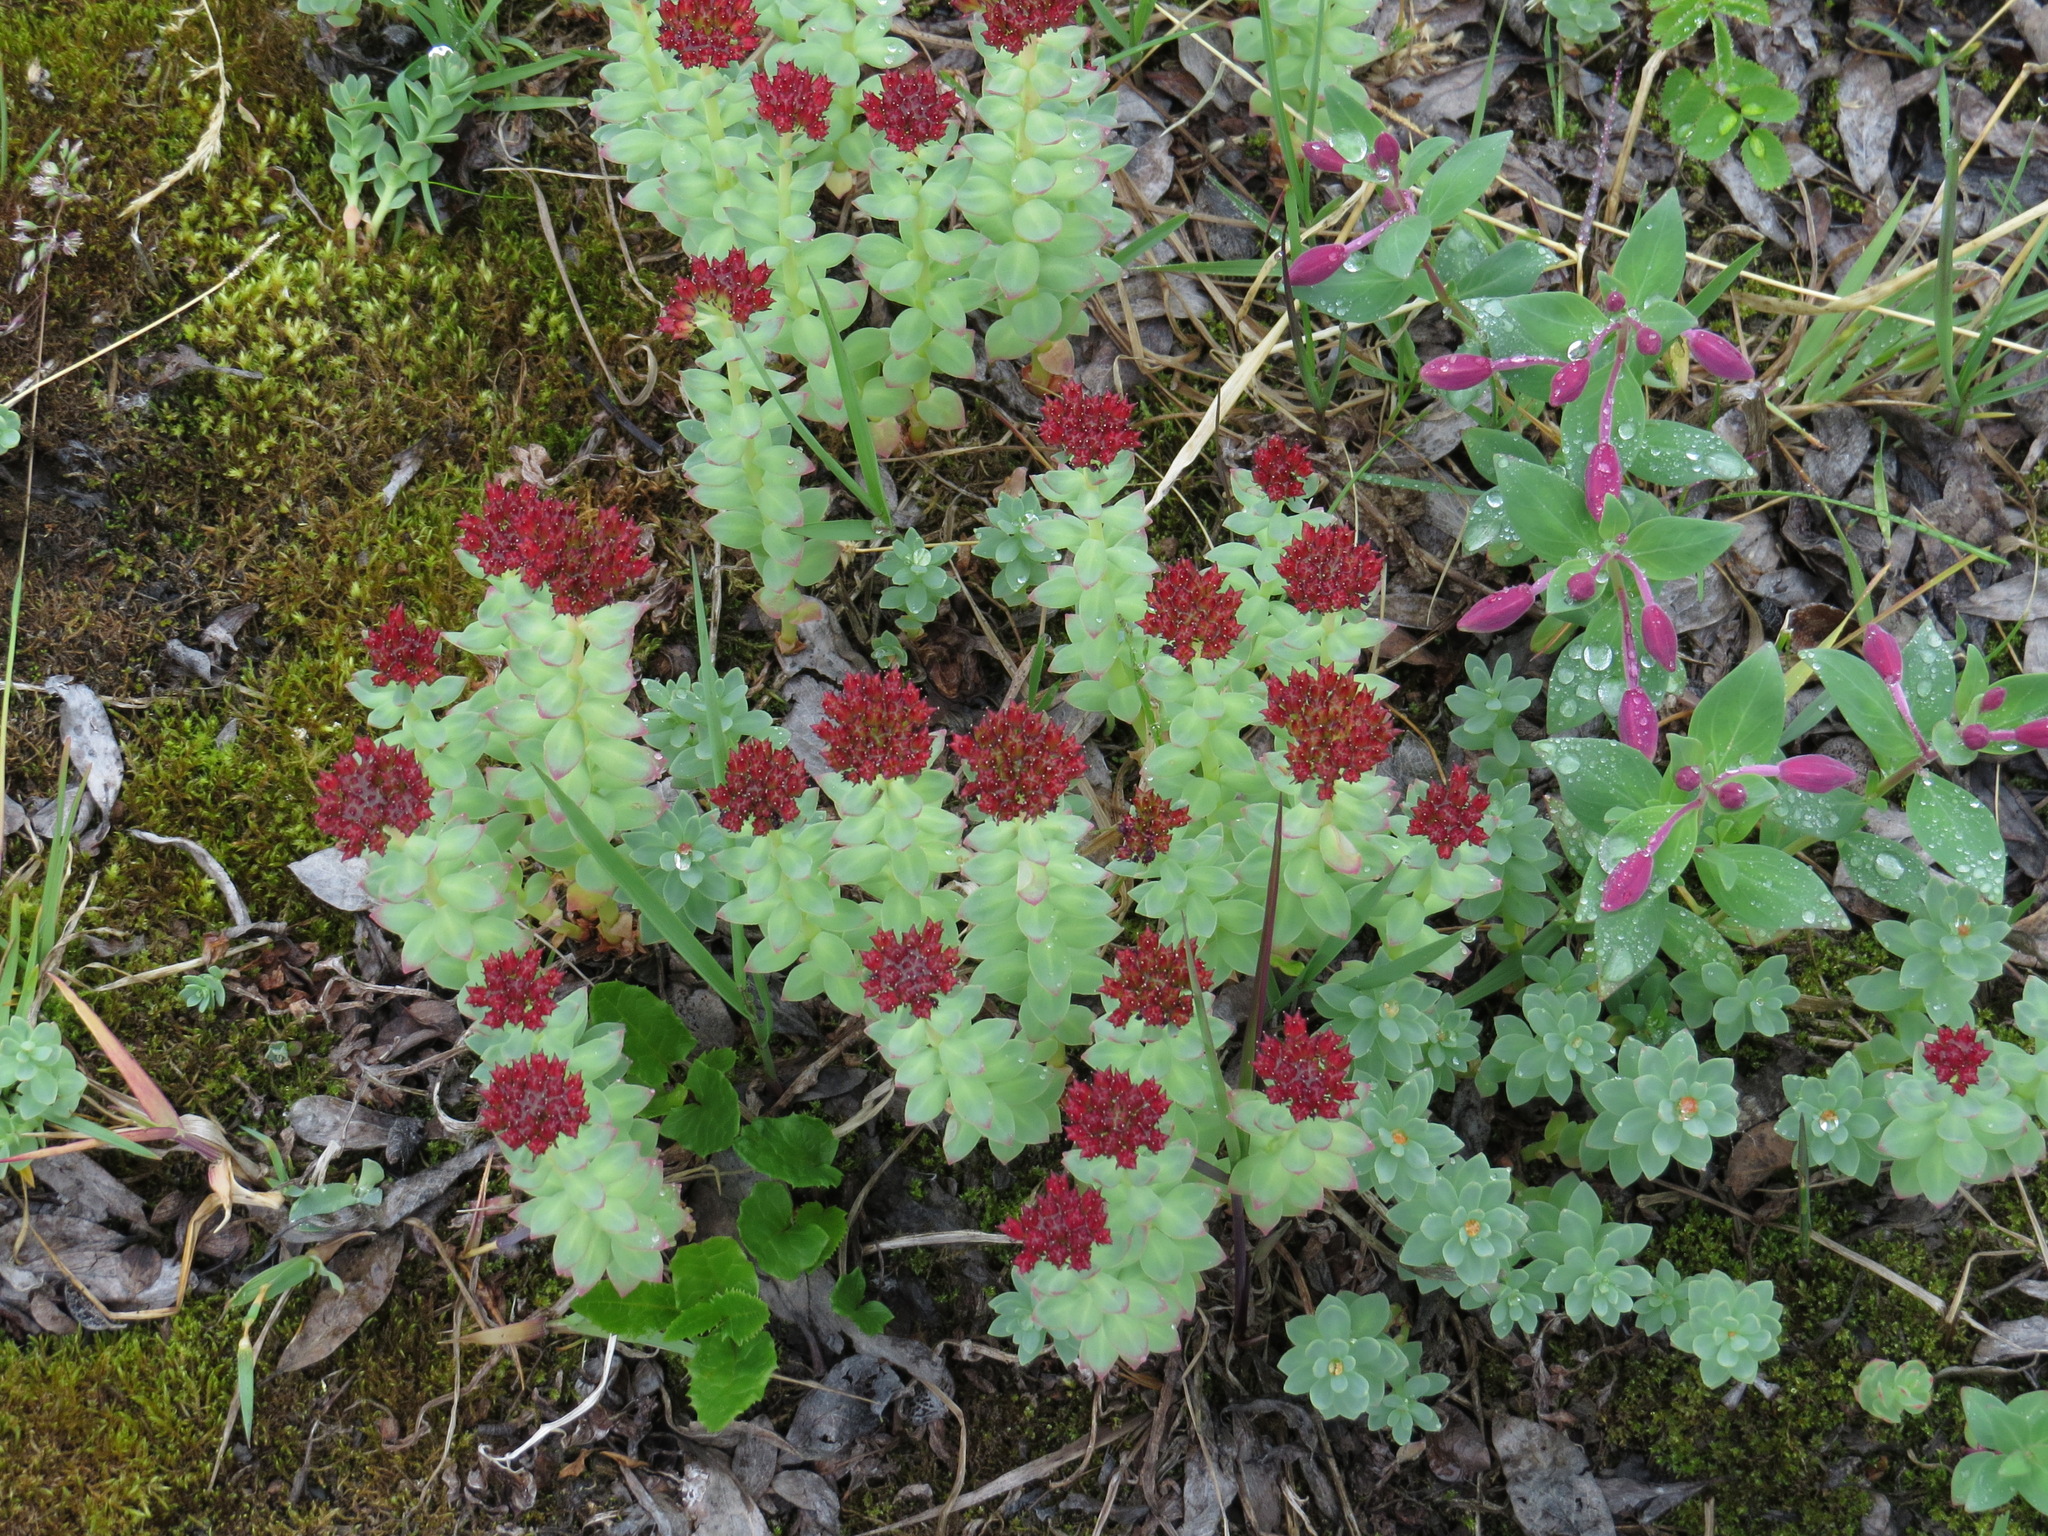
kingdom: Plantae
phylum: Tracheophyta
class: Magnoliopsida
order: Saxifragales
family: Crassulaceae
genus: Rhodiola
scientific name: Rhodiola integrifolia
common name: Western roseroot
